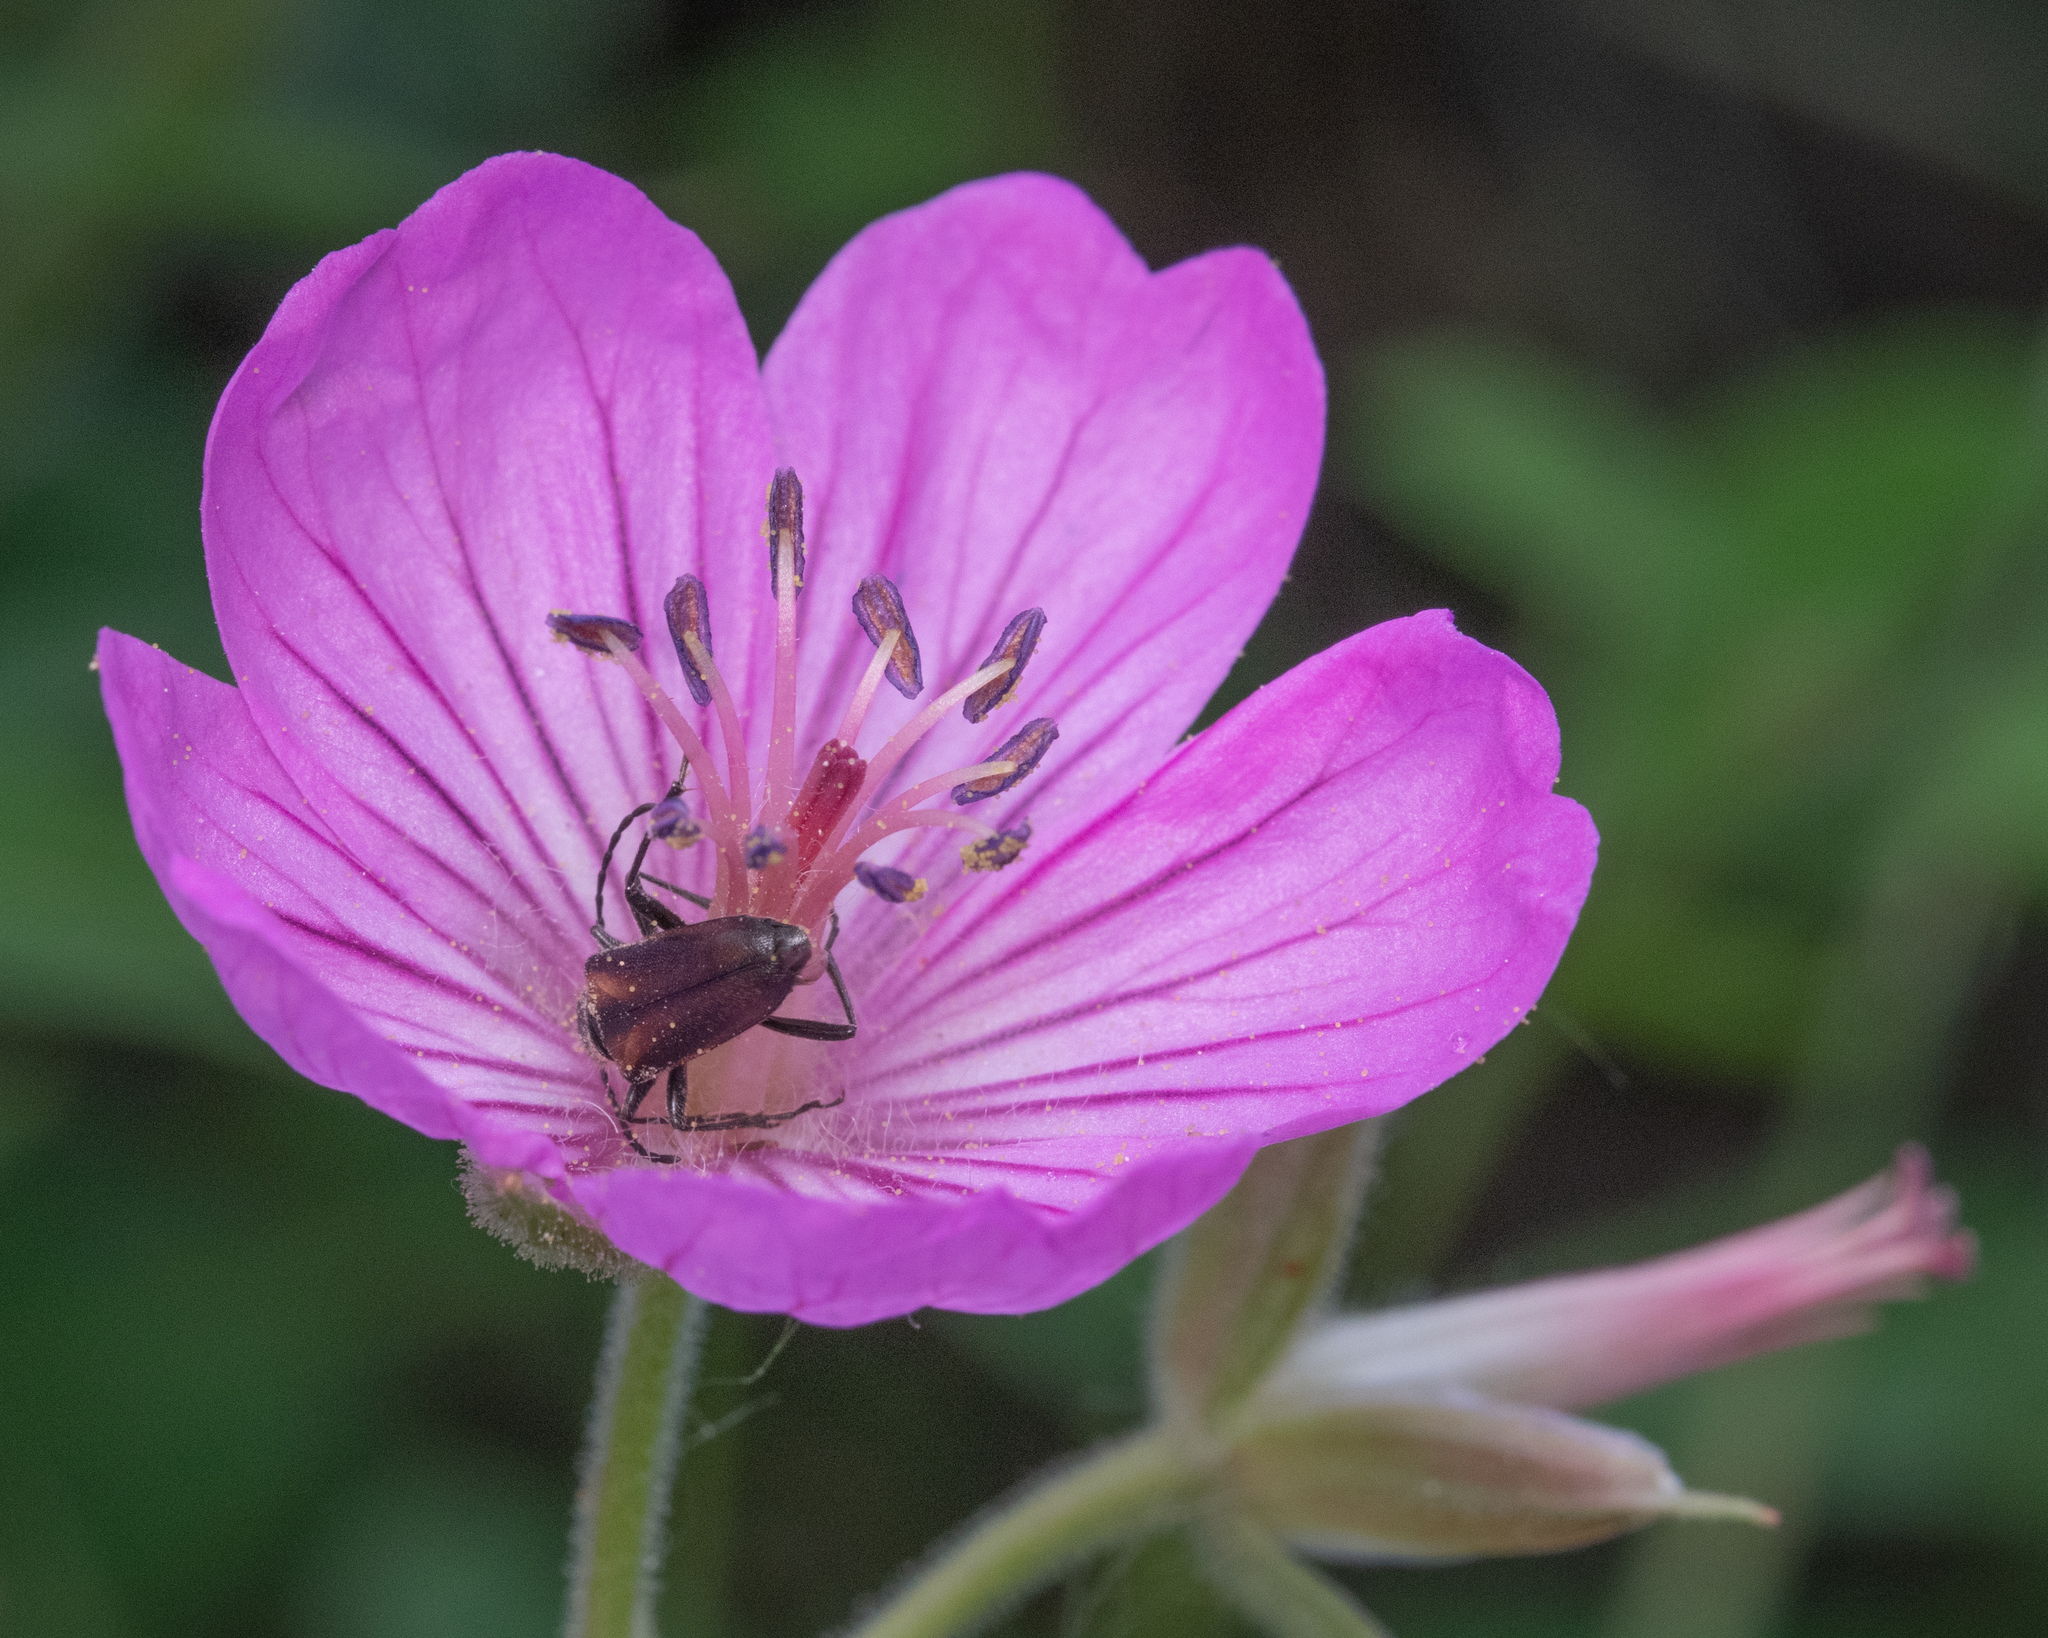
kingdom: Plantae
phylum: Tracheophyta
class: Magnoliopsida
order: Geraniales
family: Geraniaceae
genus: Geranium
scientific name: Geranium viscosissimum
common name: Purple geranium
